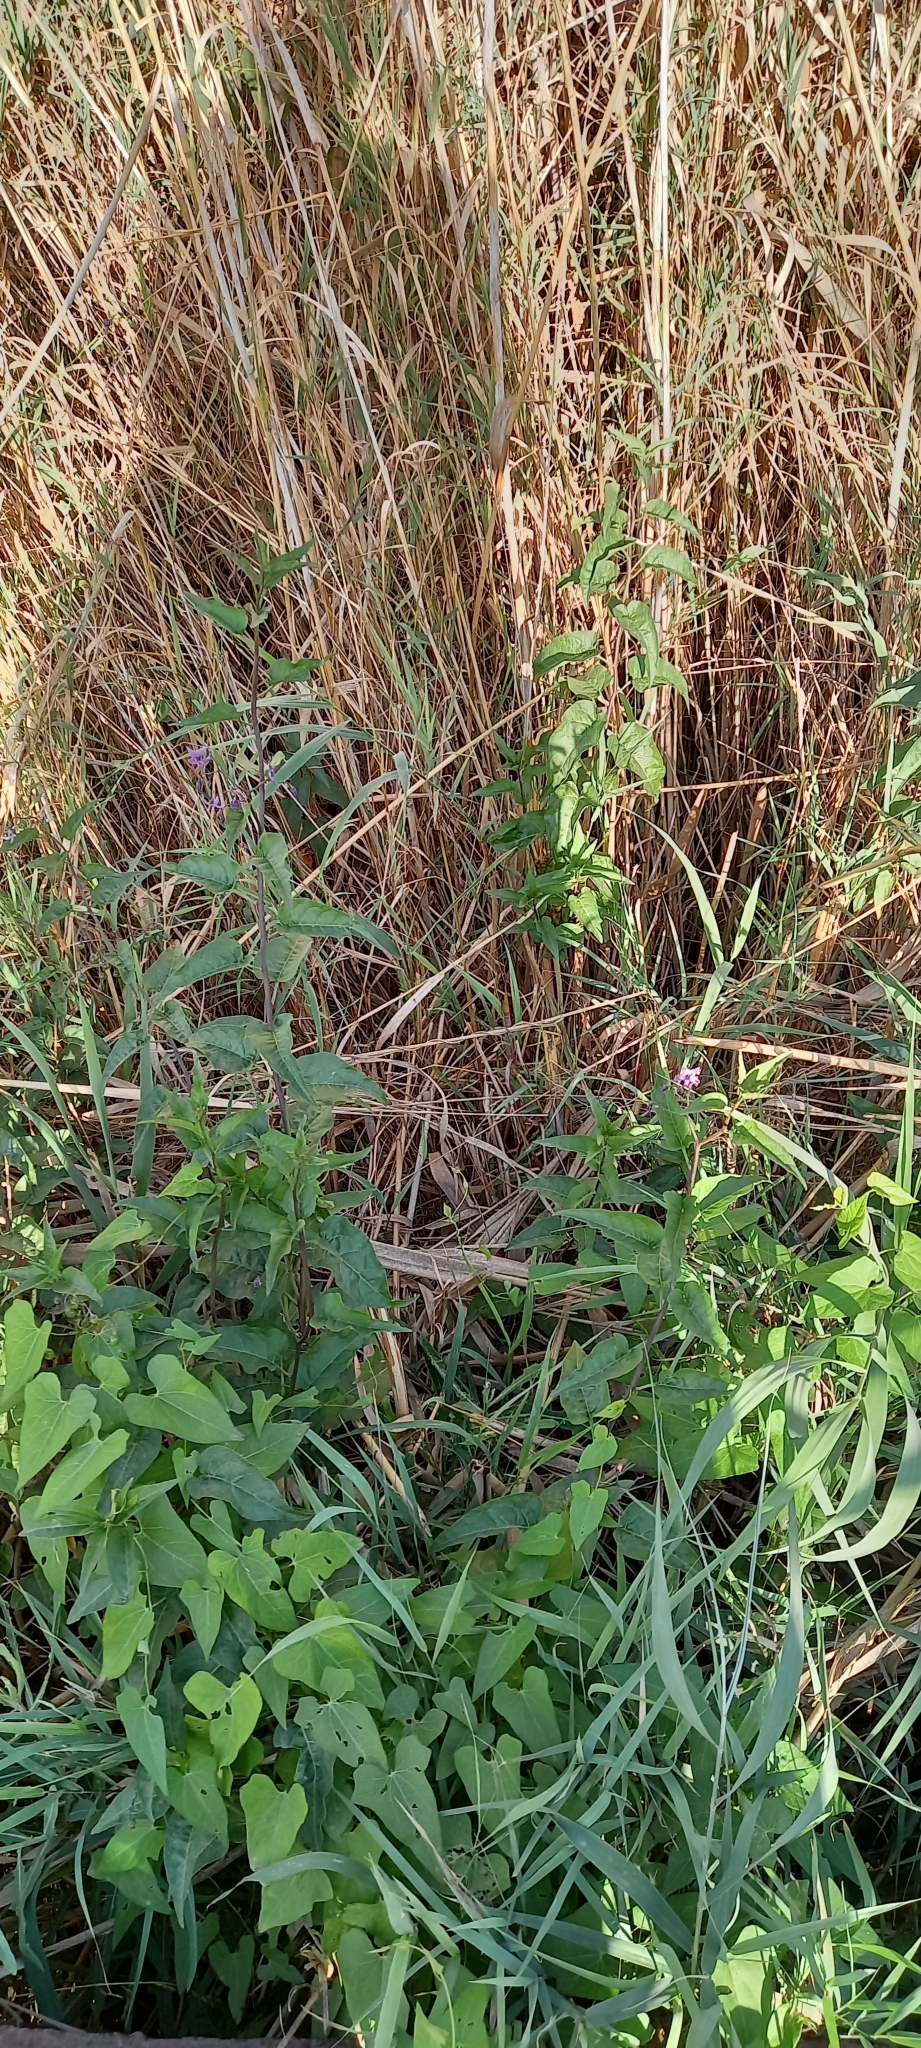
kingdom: Plantae
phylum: Tracheophyta
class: Magnoliopsida
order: Solanales
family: Solanaceae
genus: Solanum
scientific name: Solanum dulcamara
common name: Climbing nightshade
